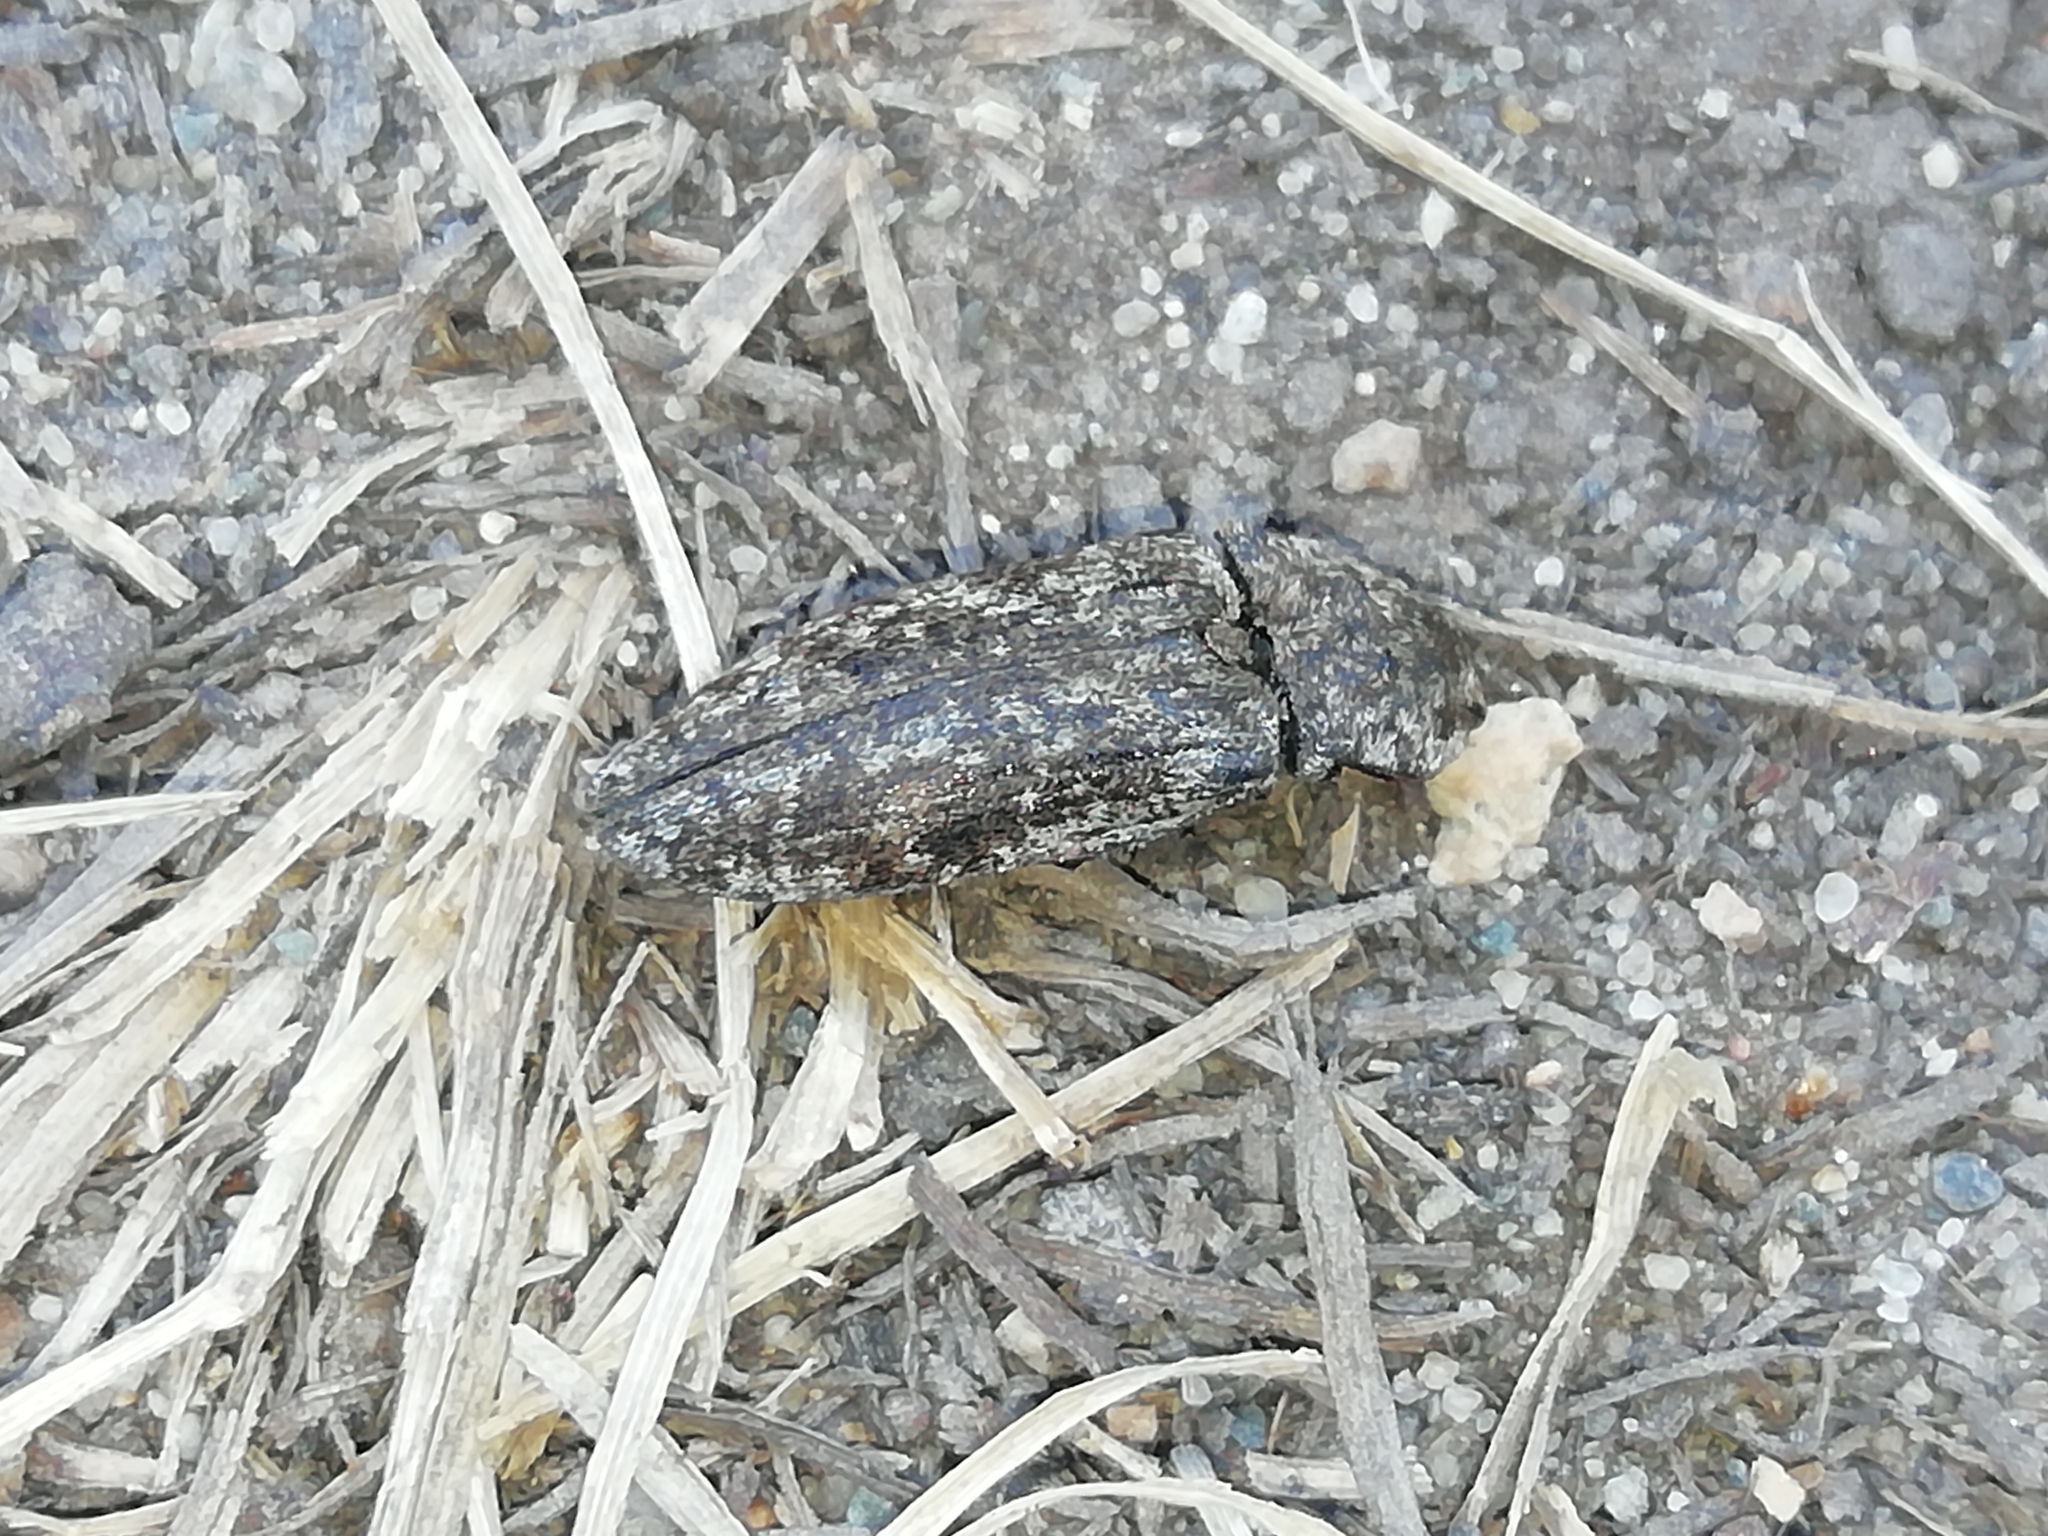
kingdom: Animalia
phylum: Arthropoda
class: Insecta
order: Coleoptera
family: Elateridae
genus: Agrypnus
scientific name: Agrypnus murinus
